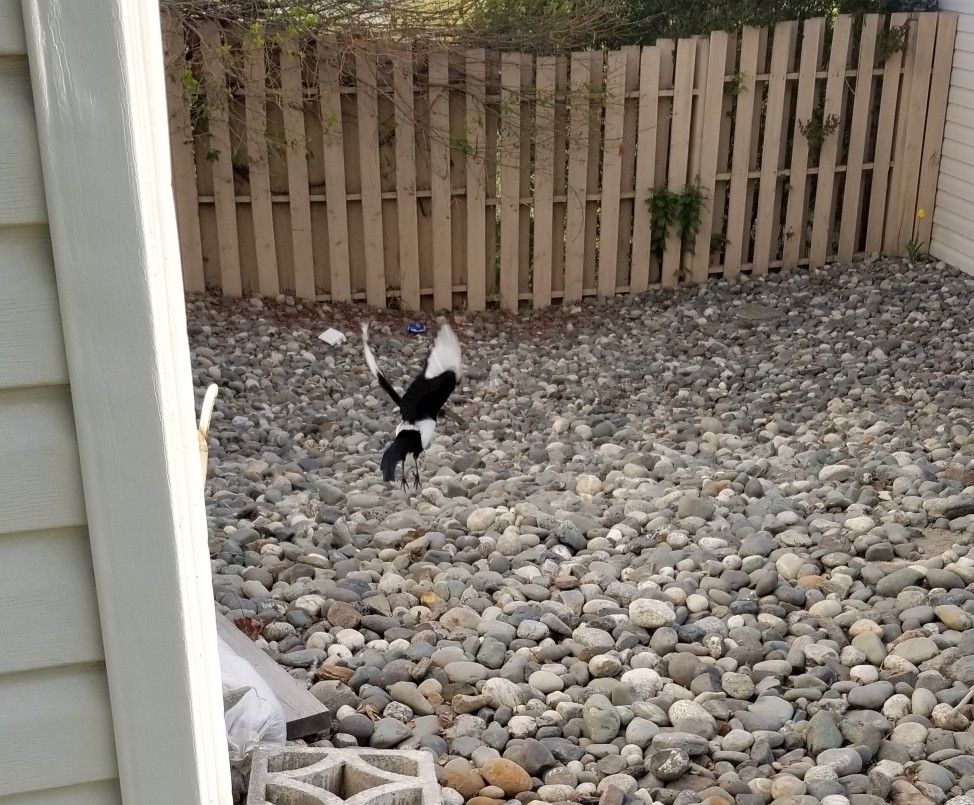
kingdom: Animalia
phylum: Chordata
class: Aves
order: Passeriformes
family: Corvidae
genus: Pica
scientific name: Pica hudsonia
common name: Black-billed magpie
